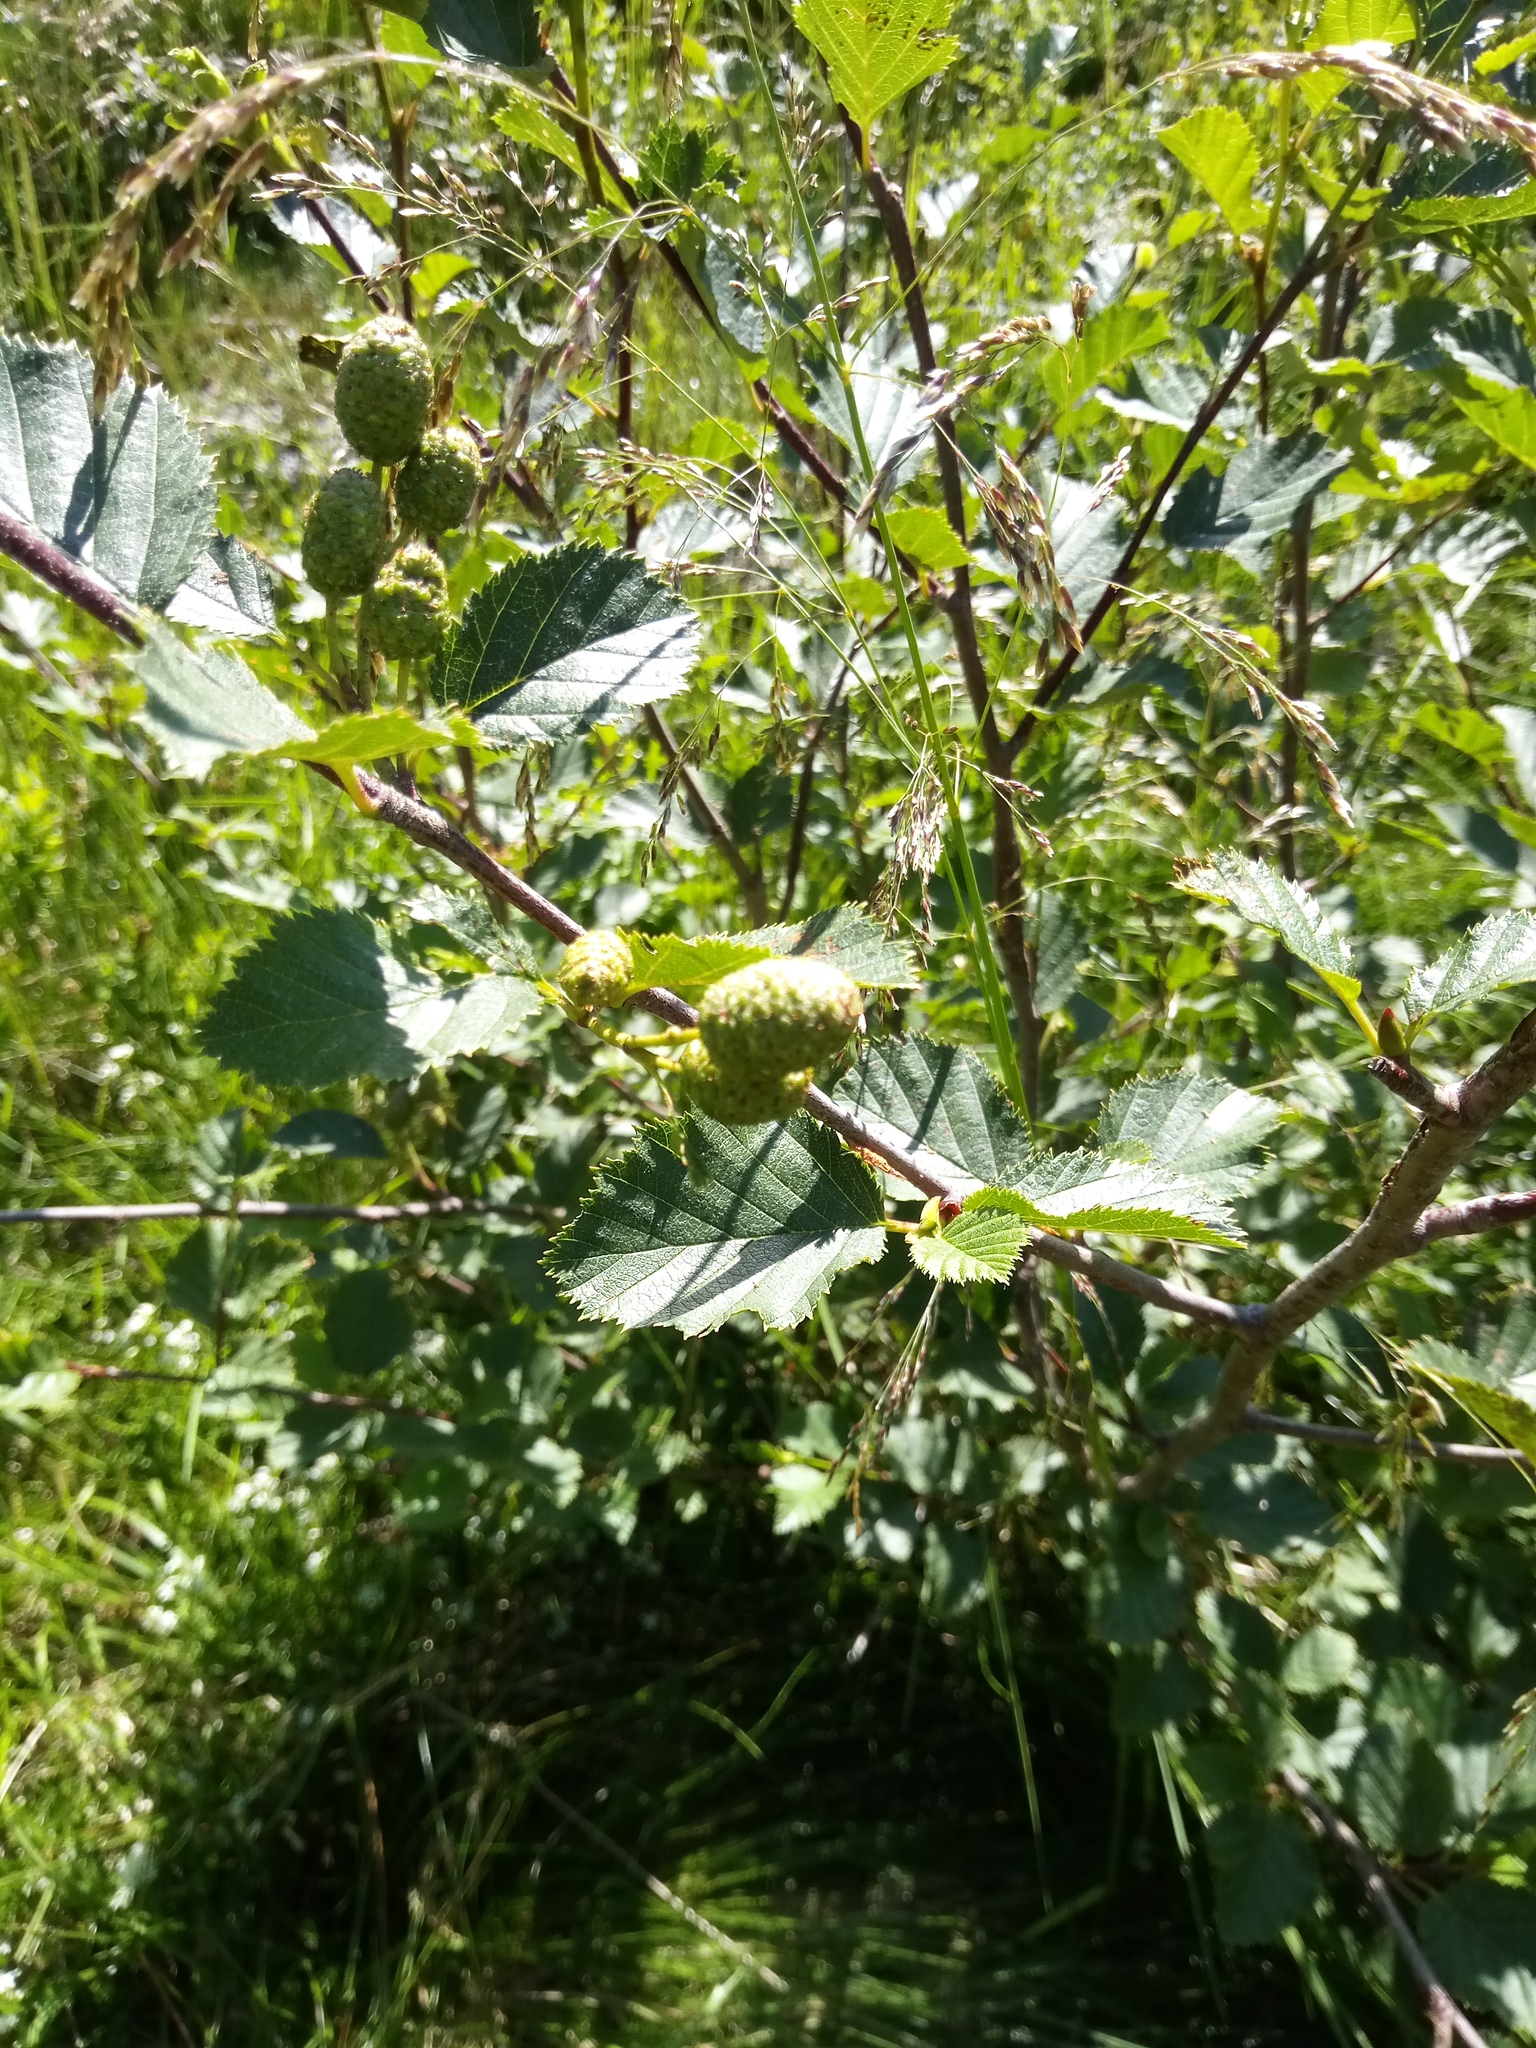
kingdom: Plantae
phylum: Tracheophyta
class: Magnoliopsida
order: Fagales
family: Betulaceae
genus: Alnus
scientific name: Alnus alnobetula
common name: Green alder
